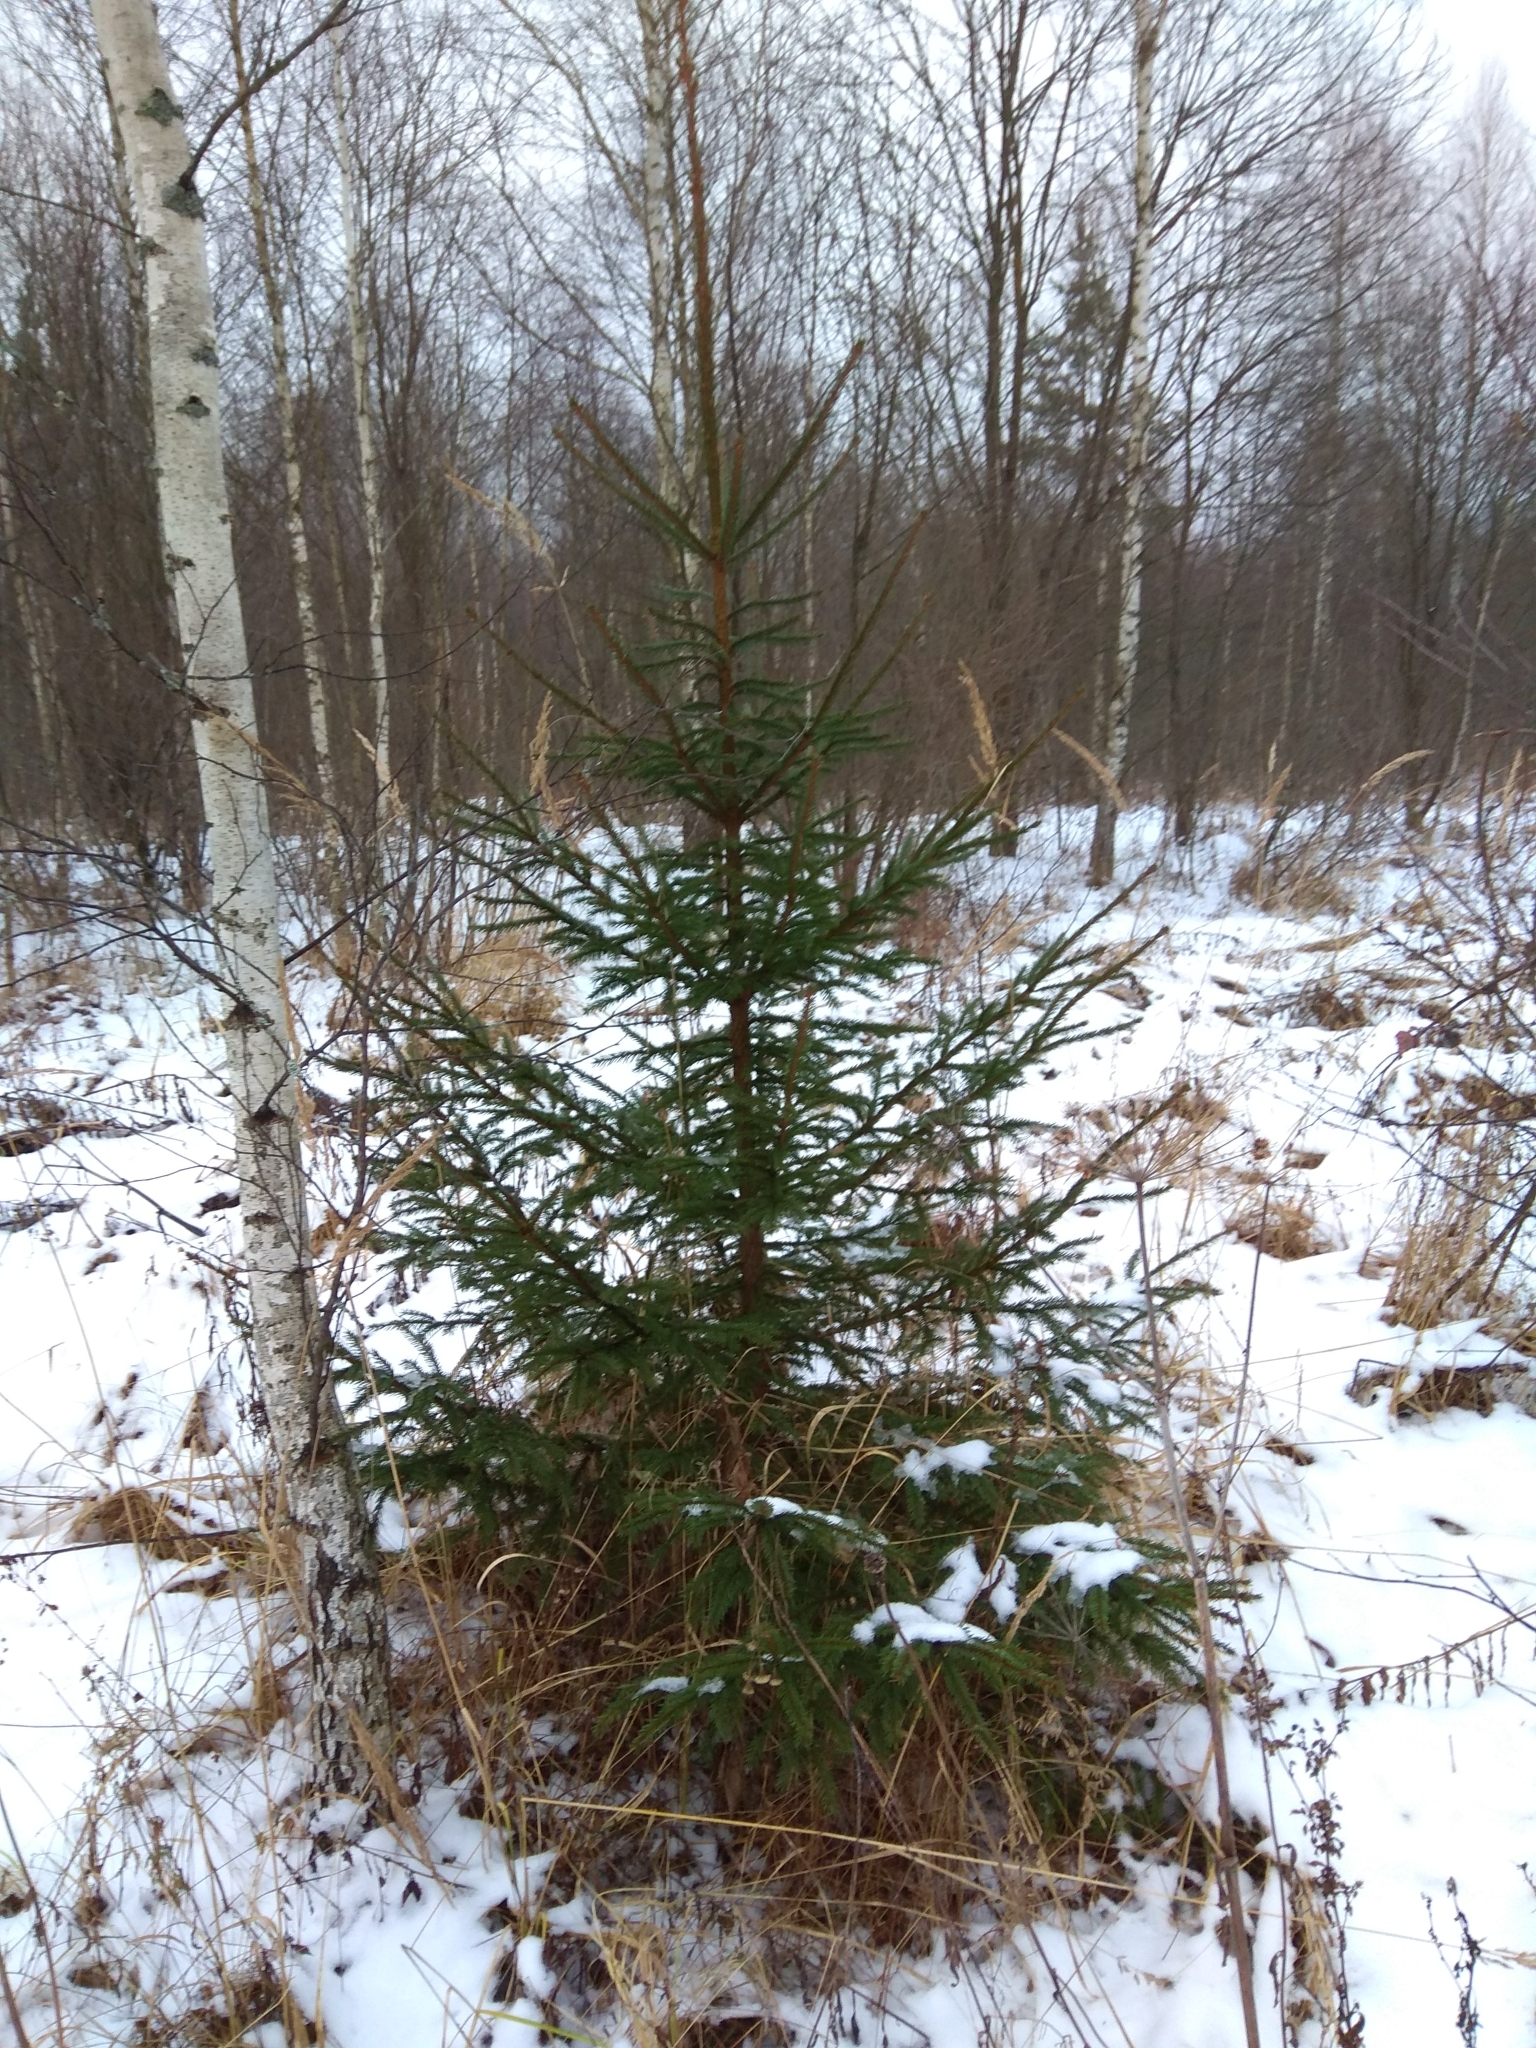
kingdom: Plantae
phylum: Tracheophyta
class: Pinopsida
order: Pinales
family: Pinaceae
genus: Picea
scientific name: Picea abies
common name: Norway spruce
